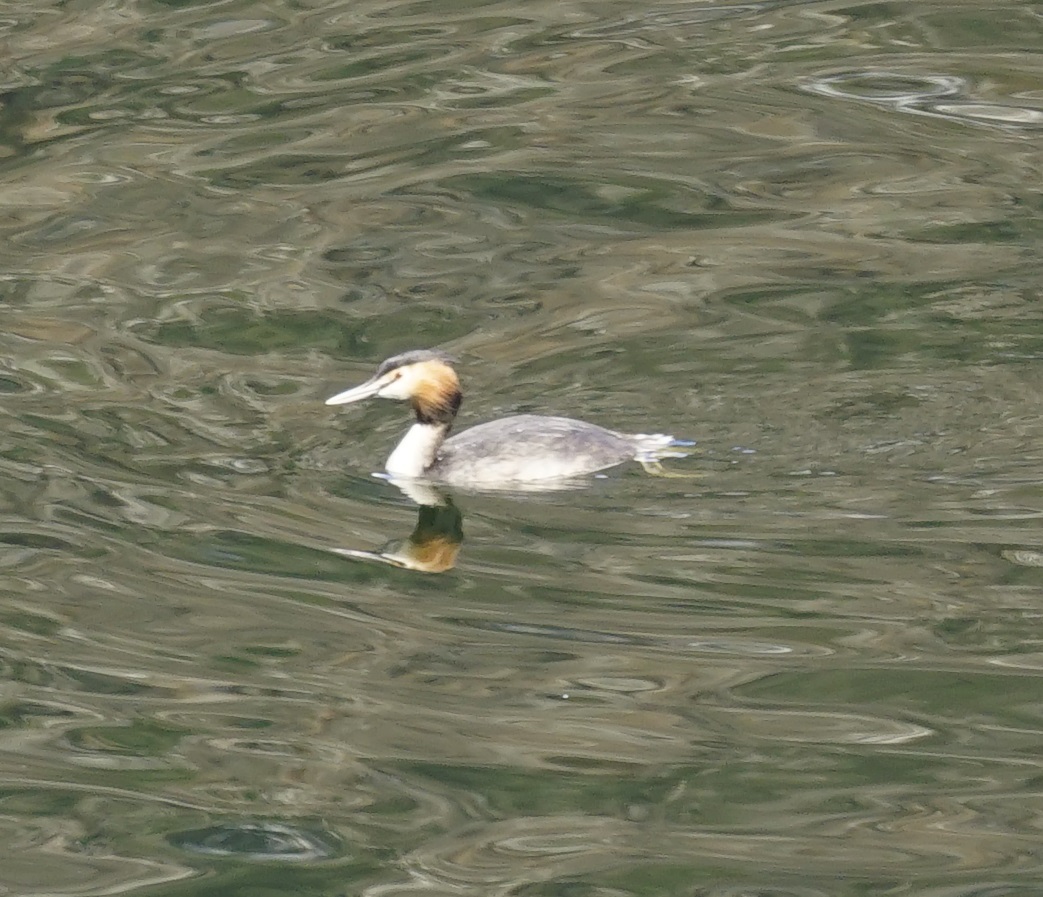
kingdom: Animalia
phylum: Chordata
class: Aves
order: Podicipediformes
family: Podicipedidae
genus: Podiceps
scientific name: Podiceps cristatus
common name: Great crested grebe
